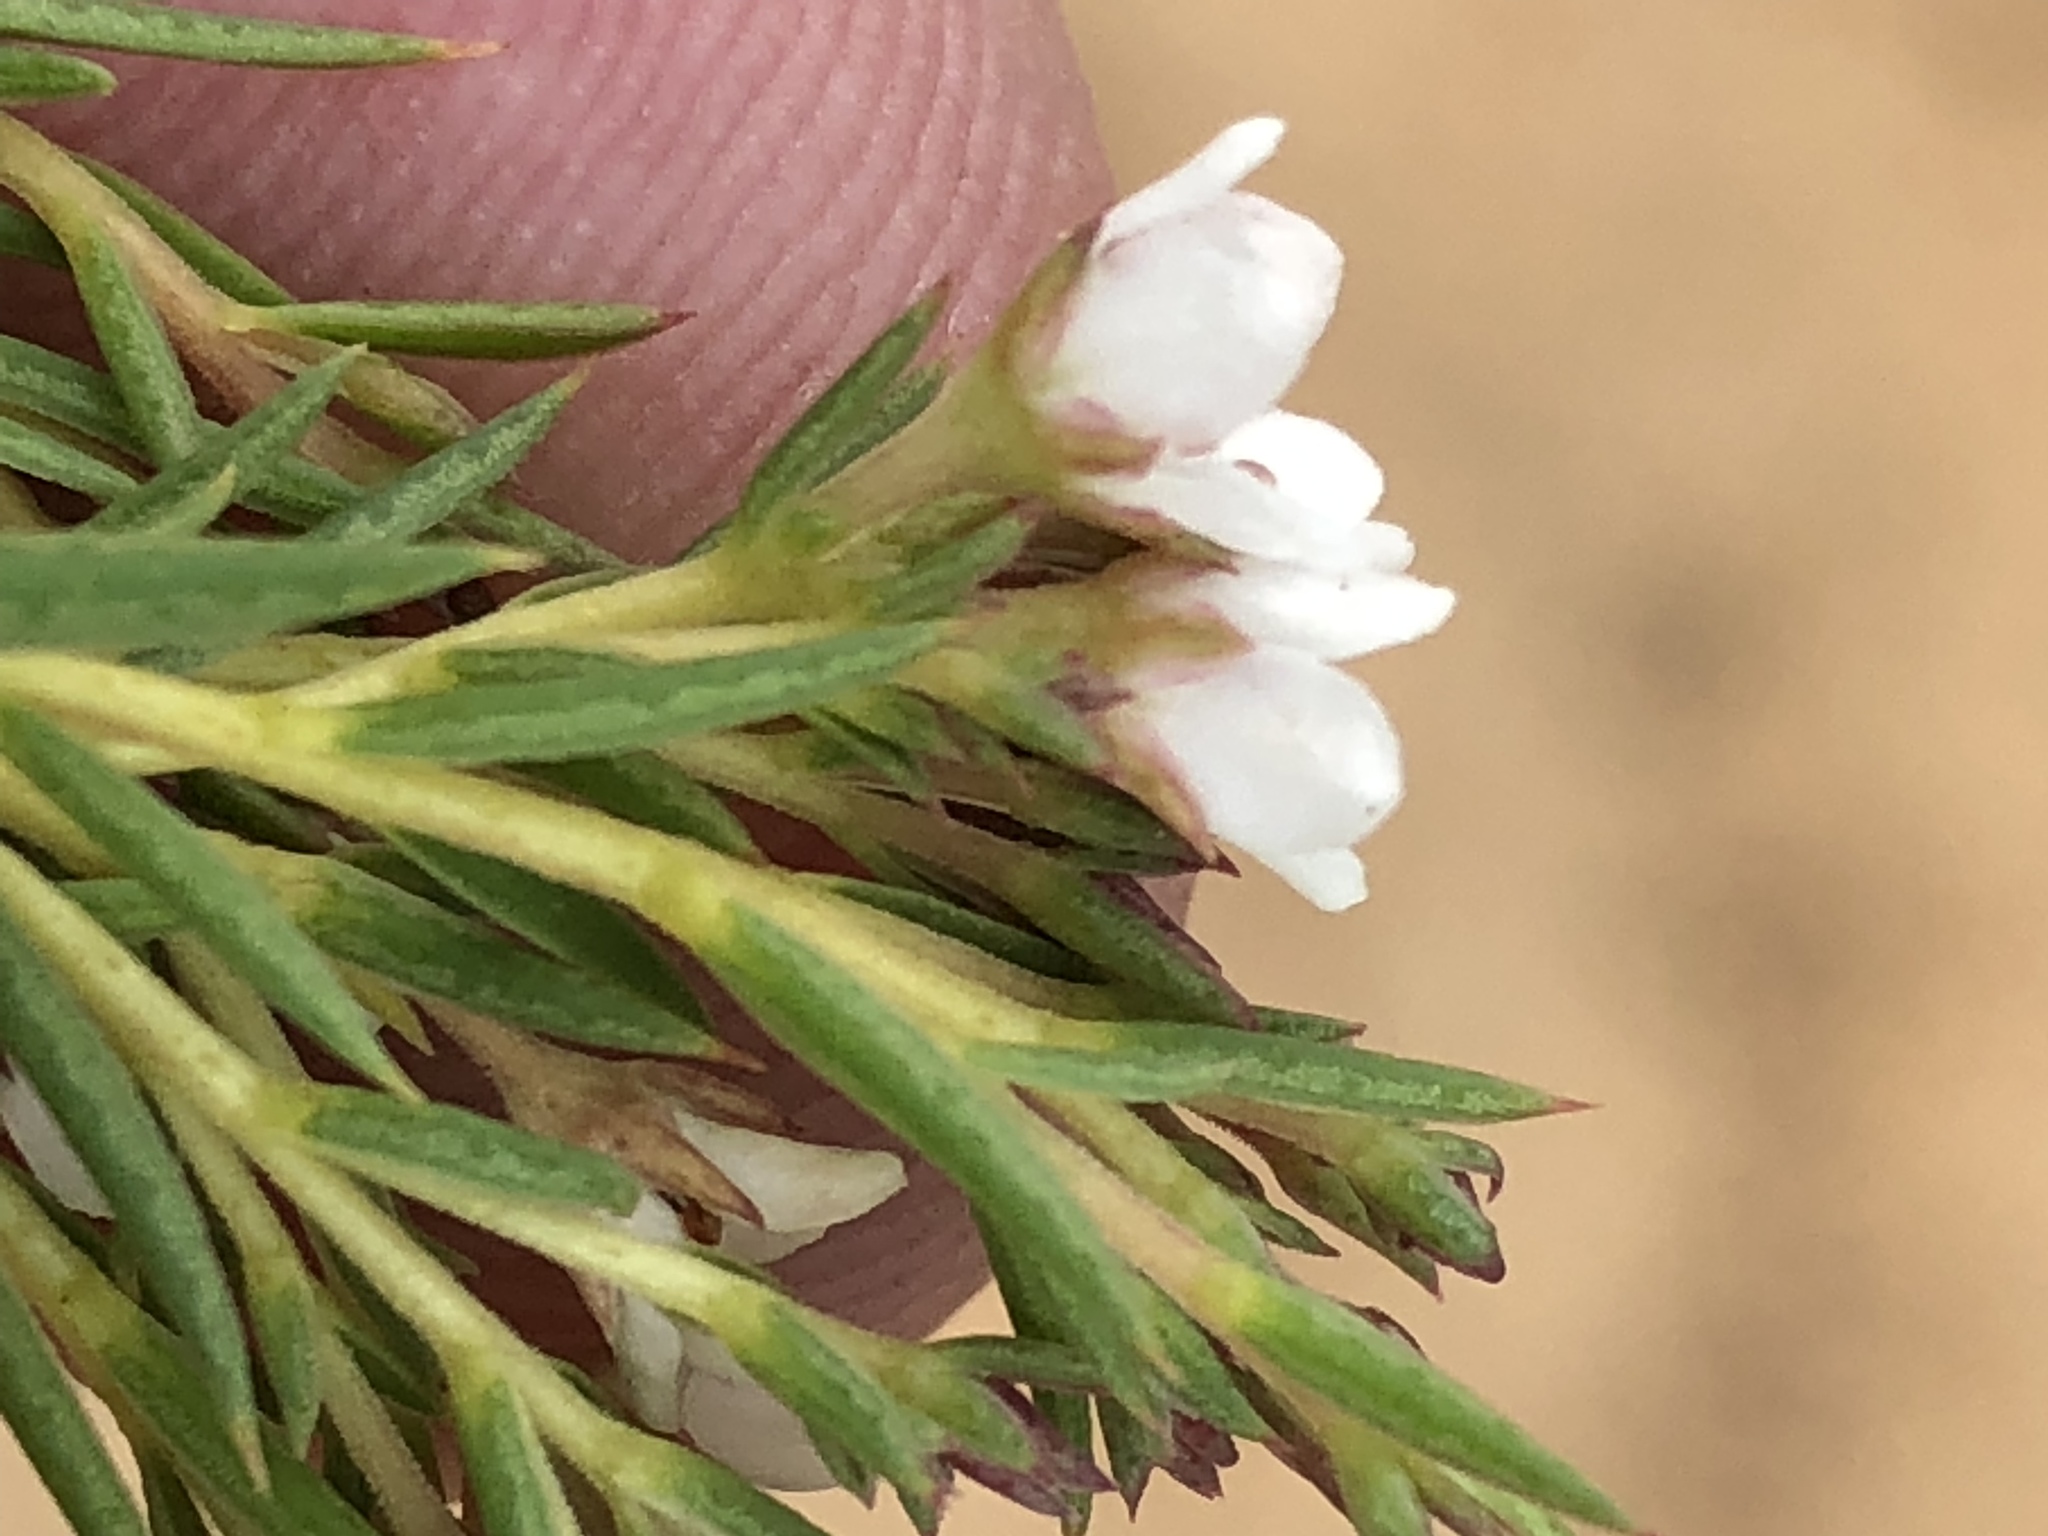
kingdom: Plantae
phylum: Tracheophyta
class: Magnoliopsida
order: Sapindales
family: Rutaceae
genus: Diosma
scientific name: Diosma hirsuta
